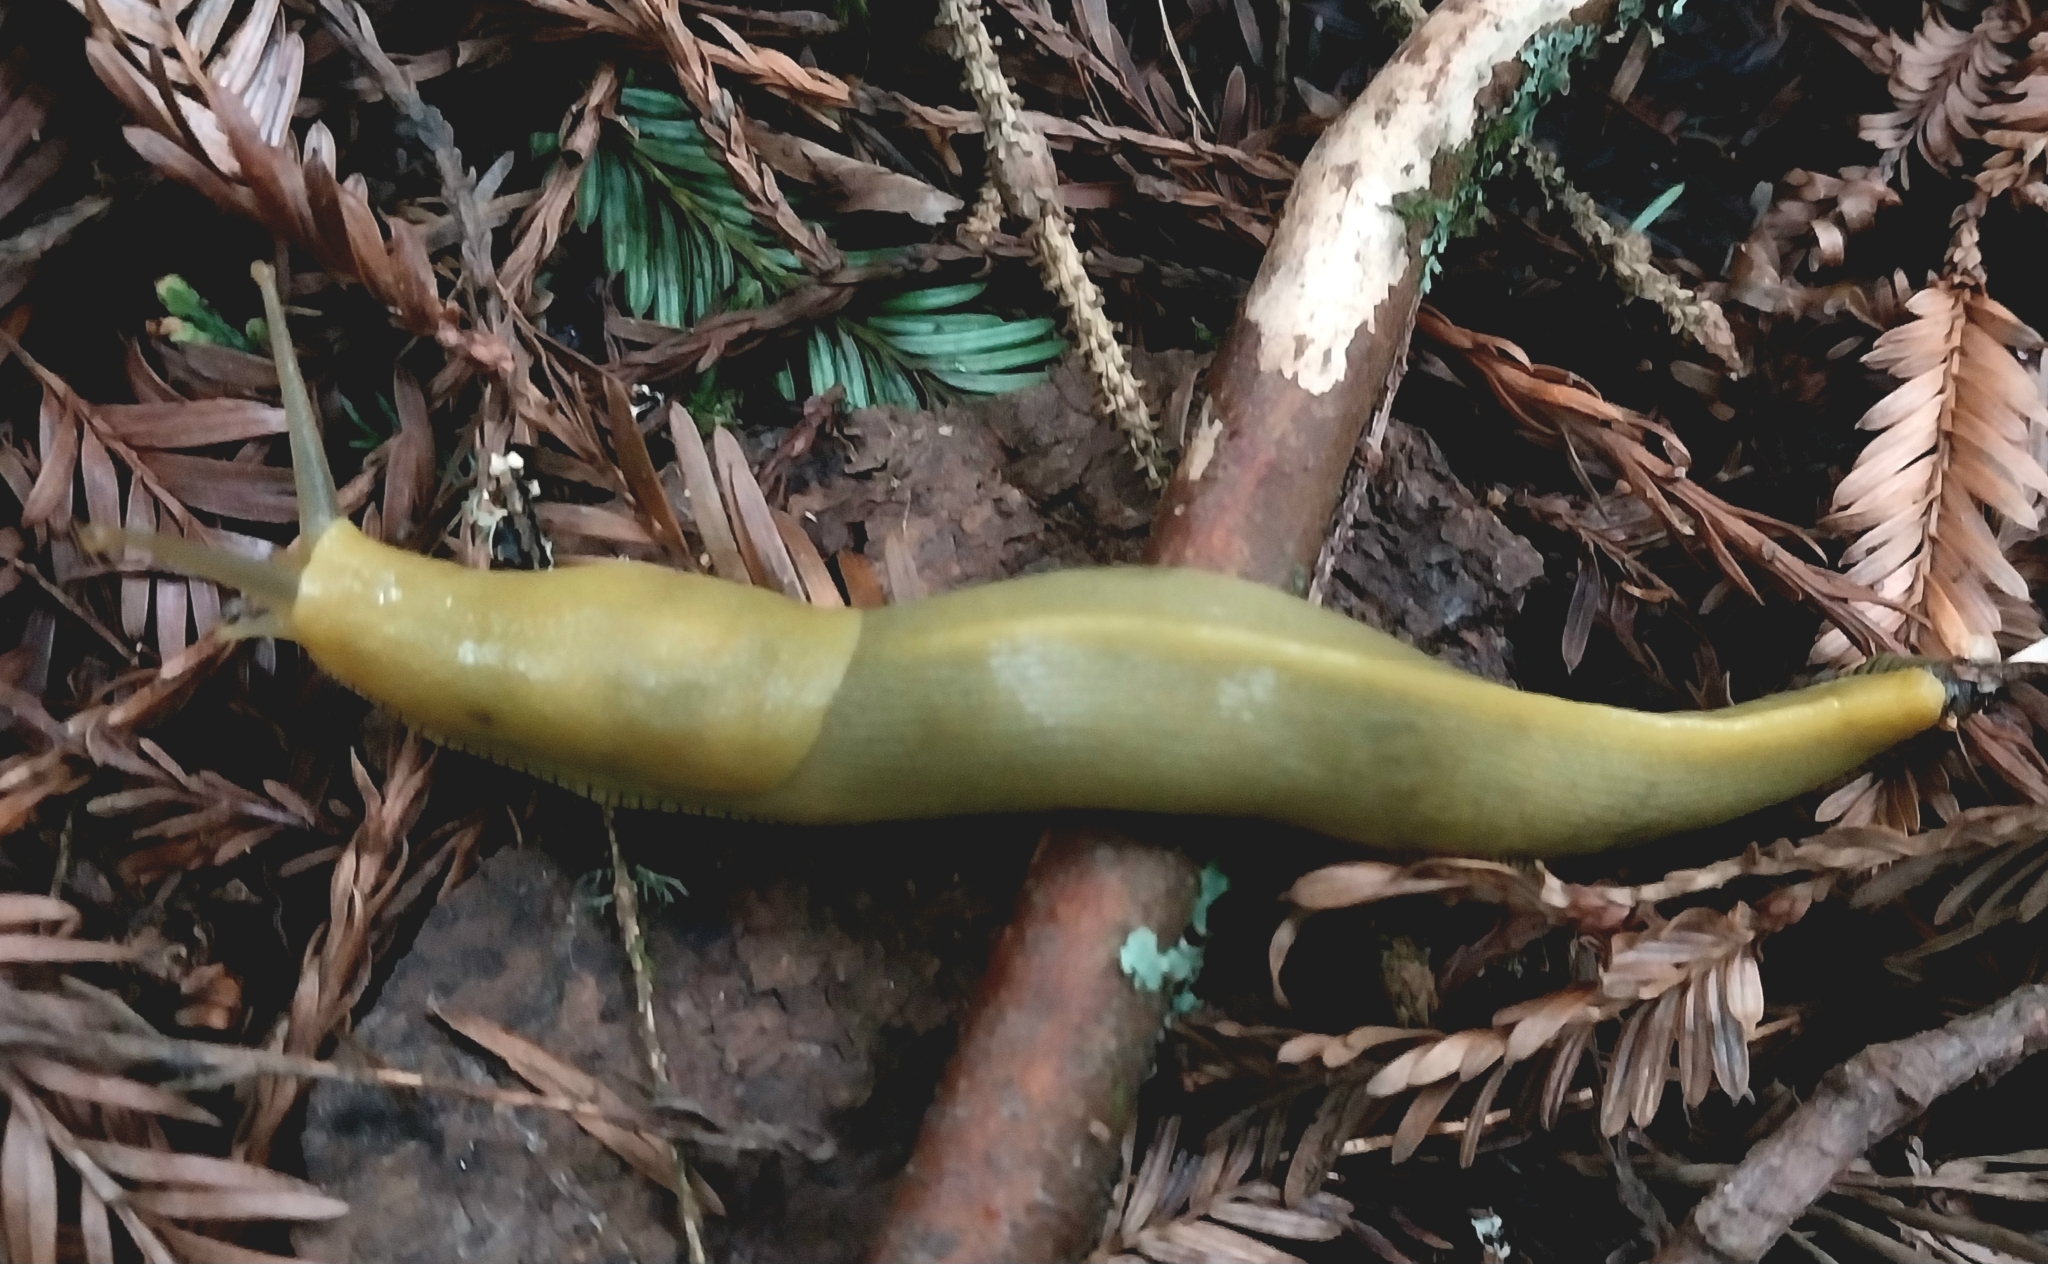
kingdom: Animalia
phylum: Mollusca
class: Gastropoda
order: Stylommatophora
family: Ariolimacidae
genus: Ariolimax
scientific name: Ariolimax columbianus
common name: Pacific banana slug
